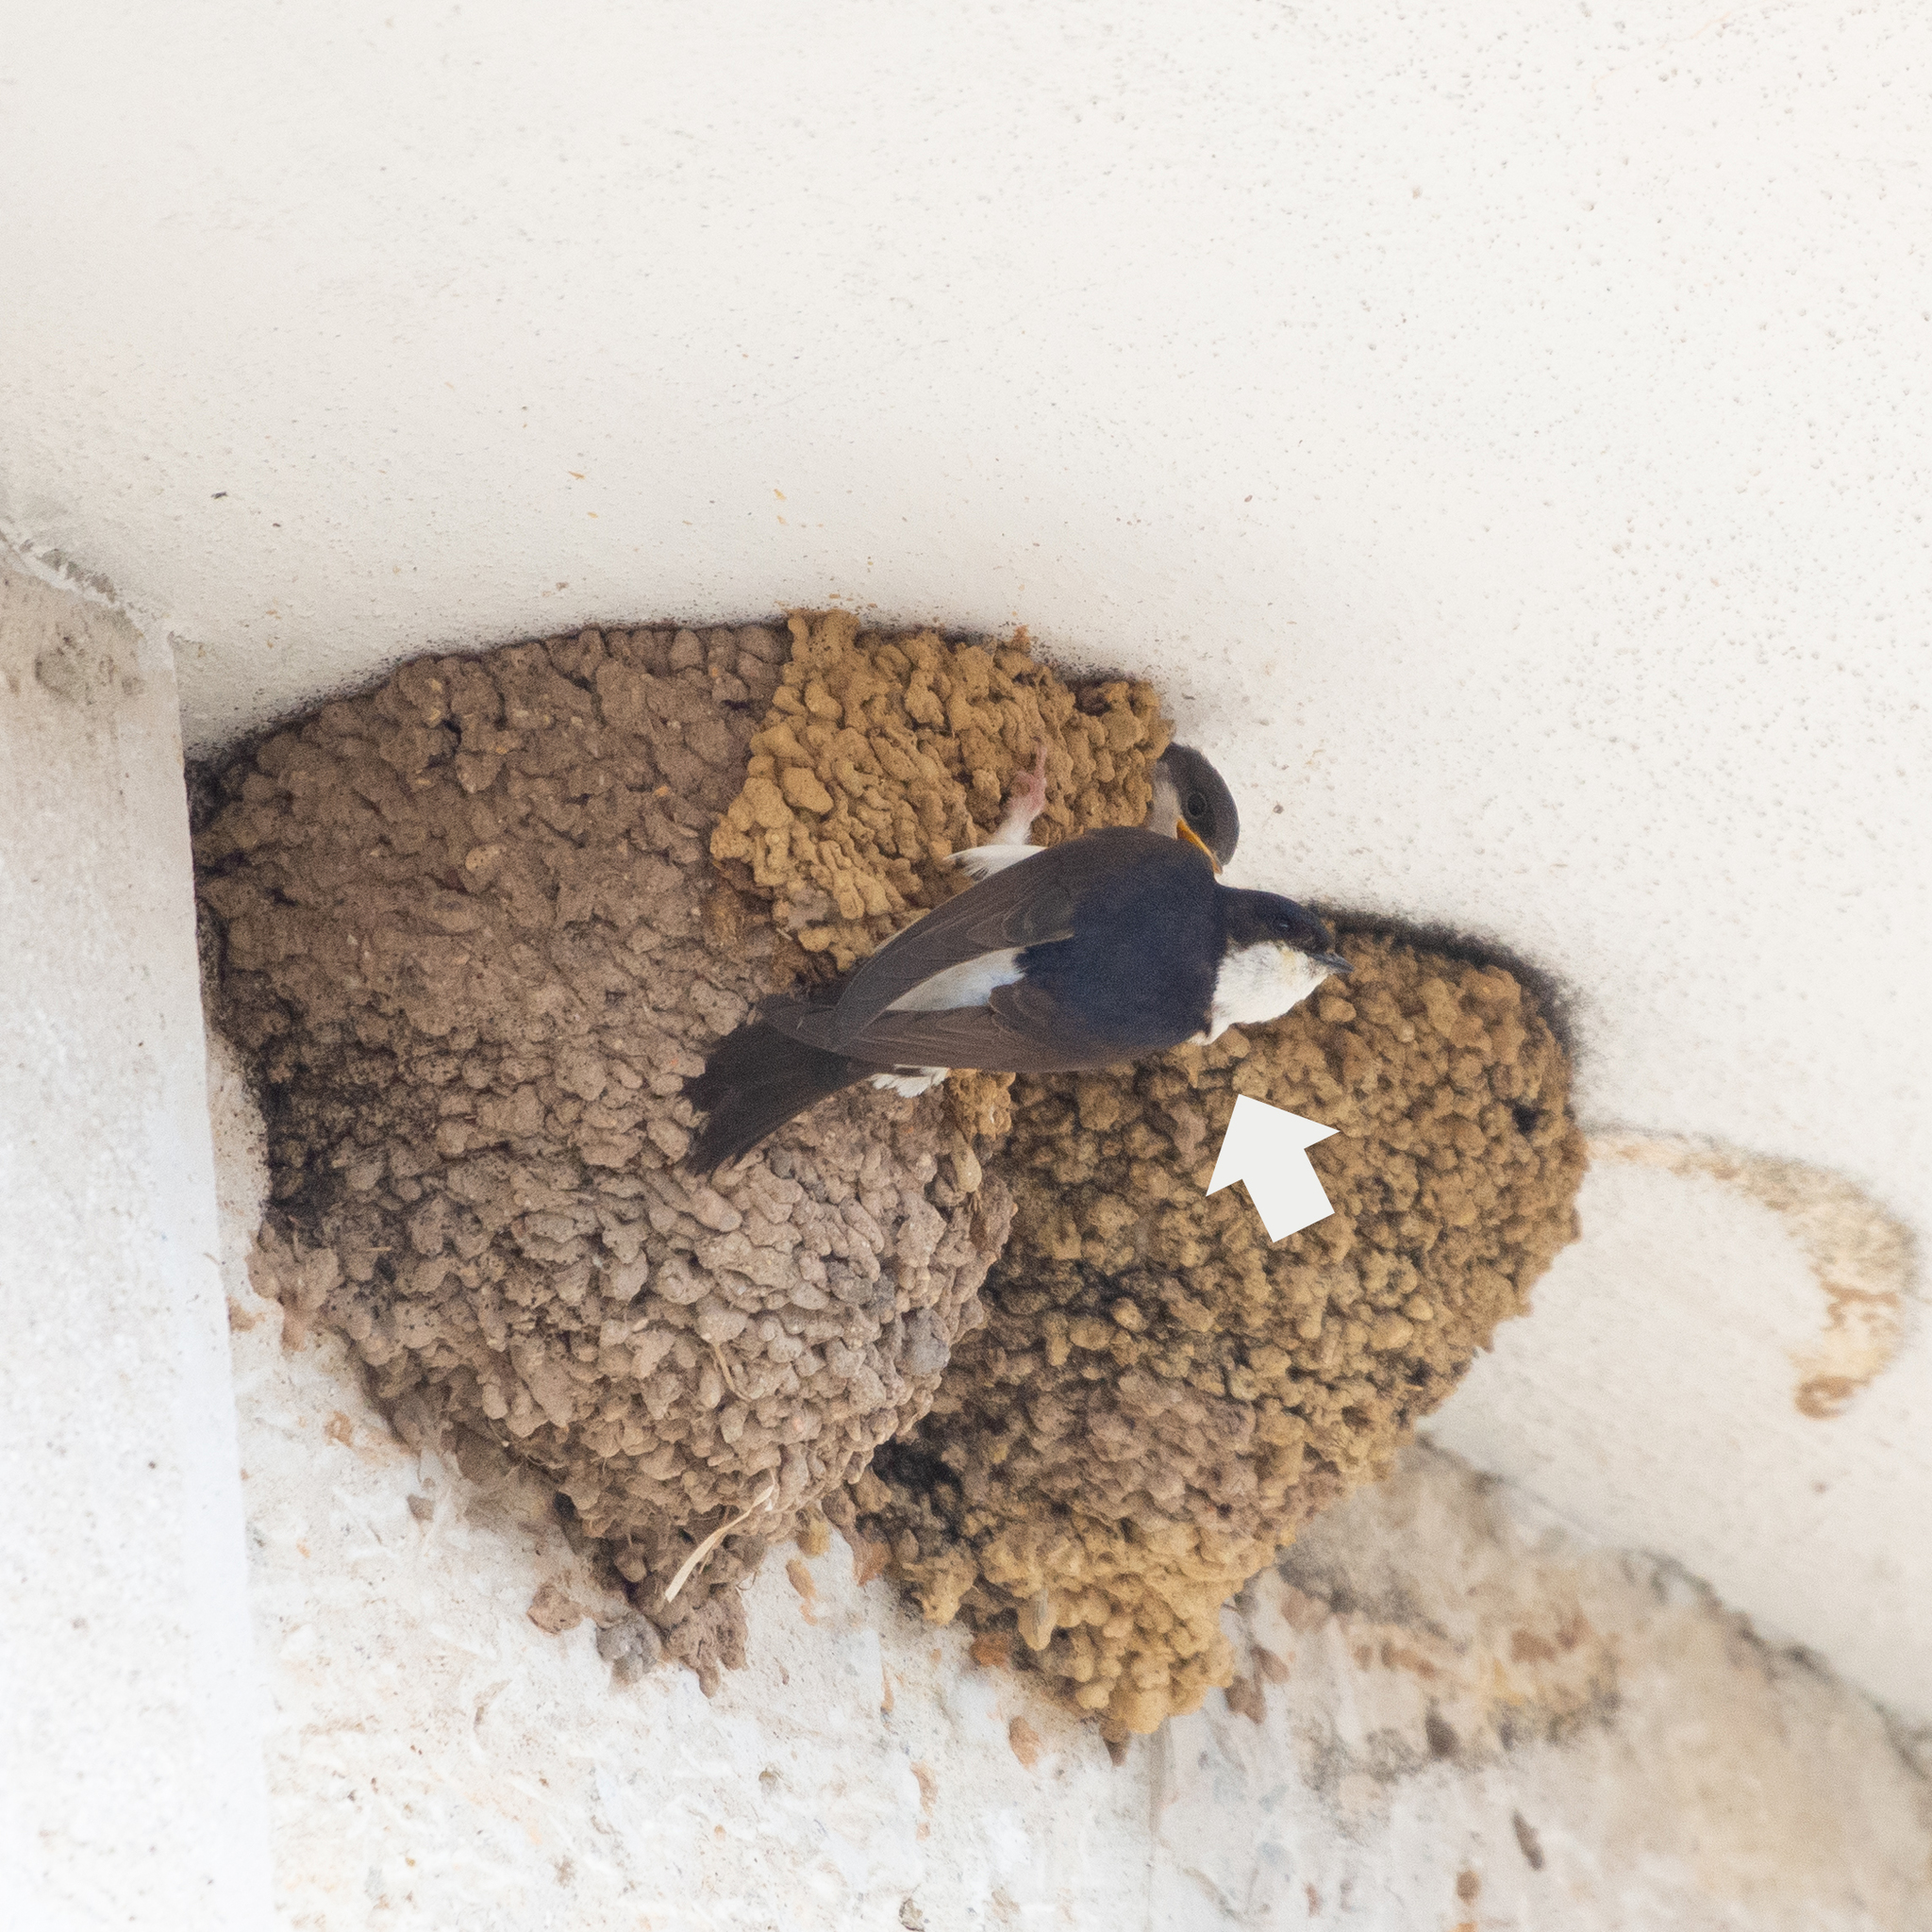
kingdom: Animalia
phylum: Chordata
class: Aves
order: Passeriformes
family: Hirundinidae
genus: Delichon
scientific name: Delichon urbicum
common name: Common house martin
